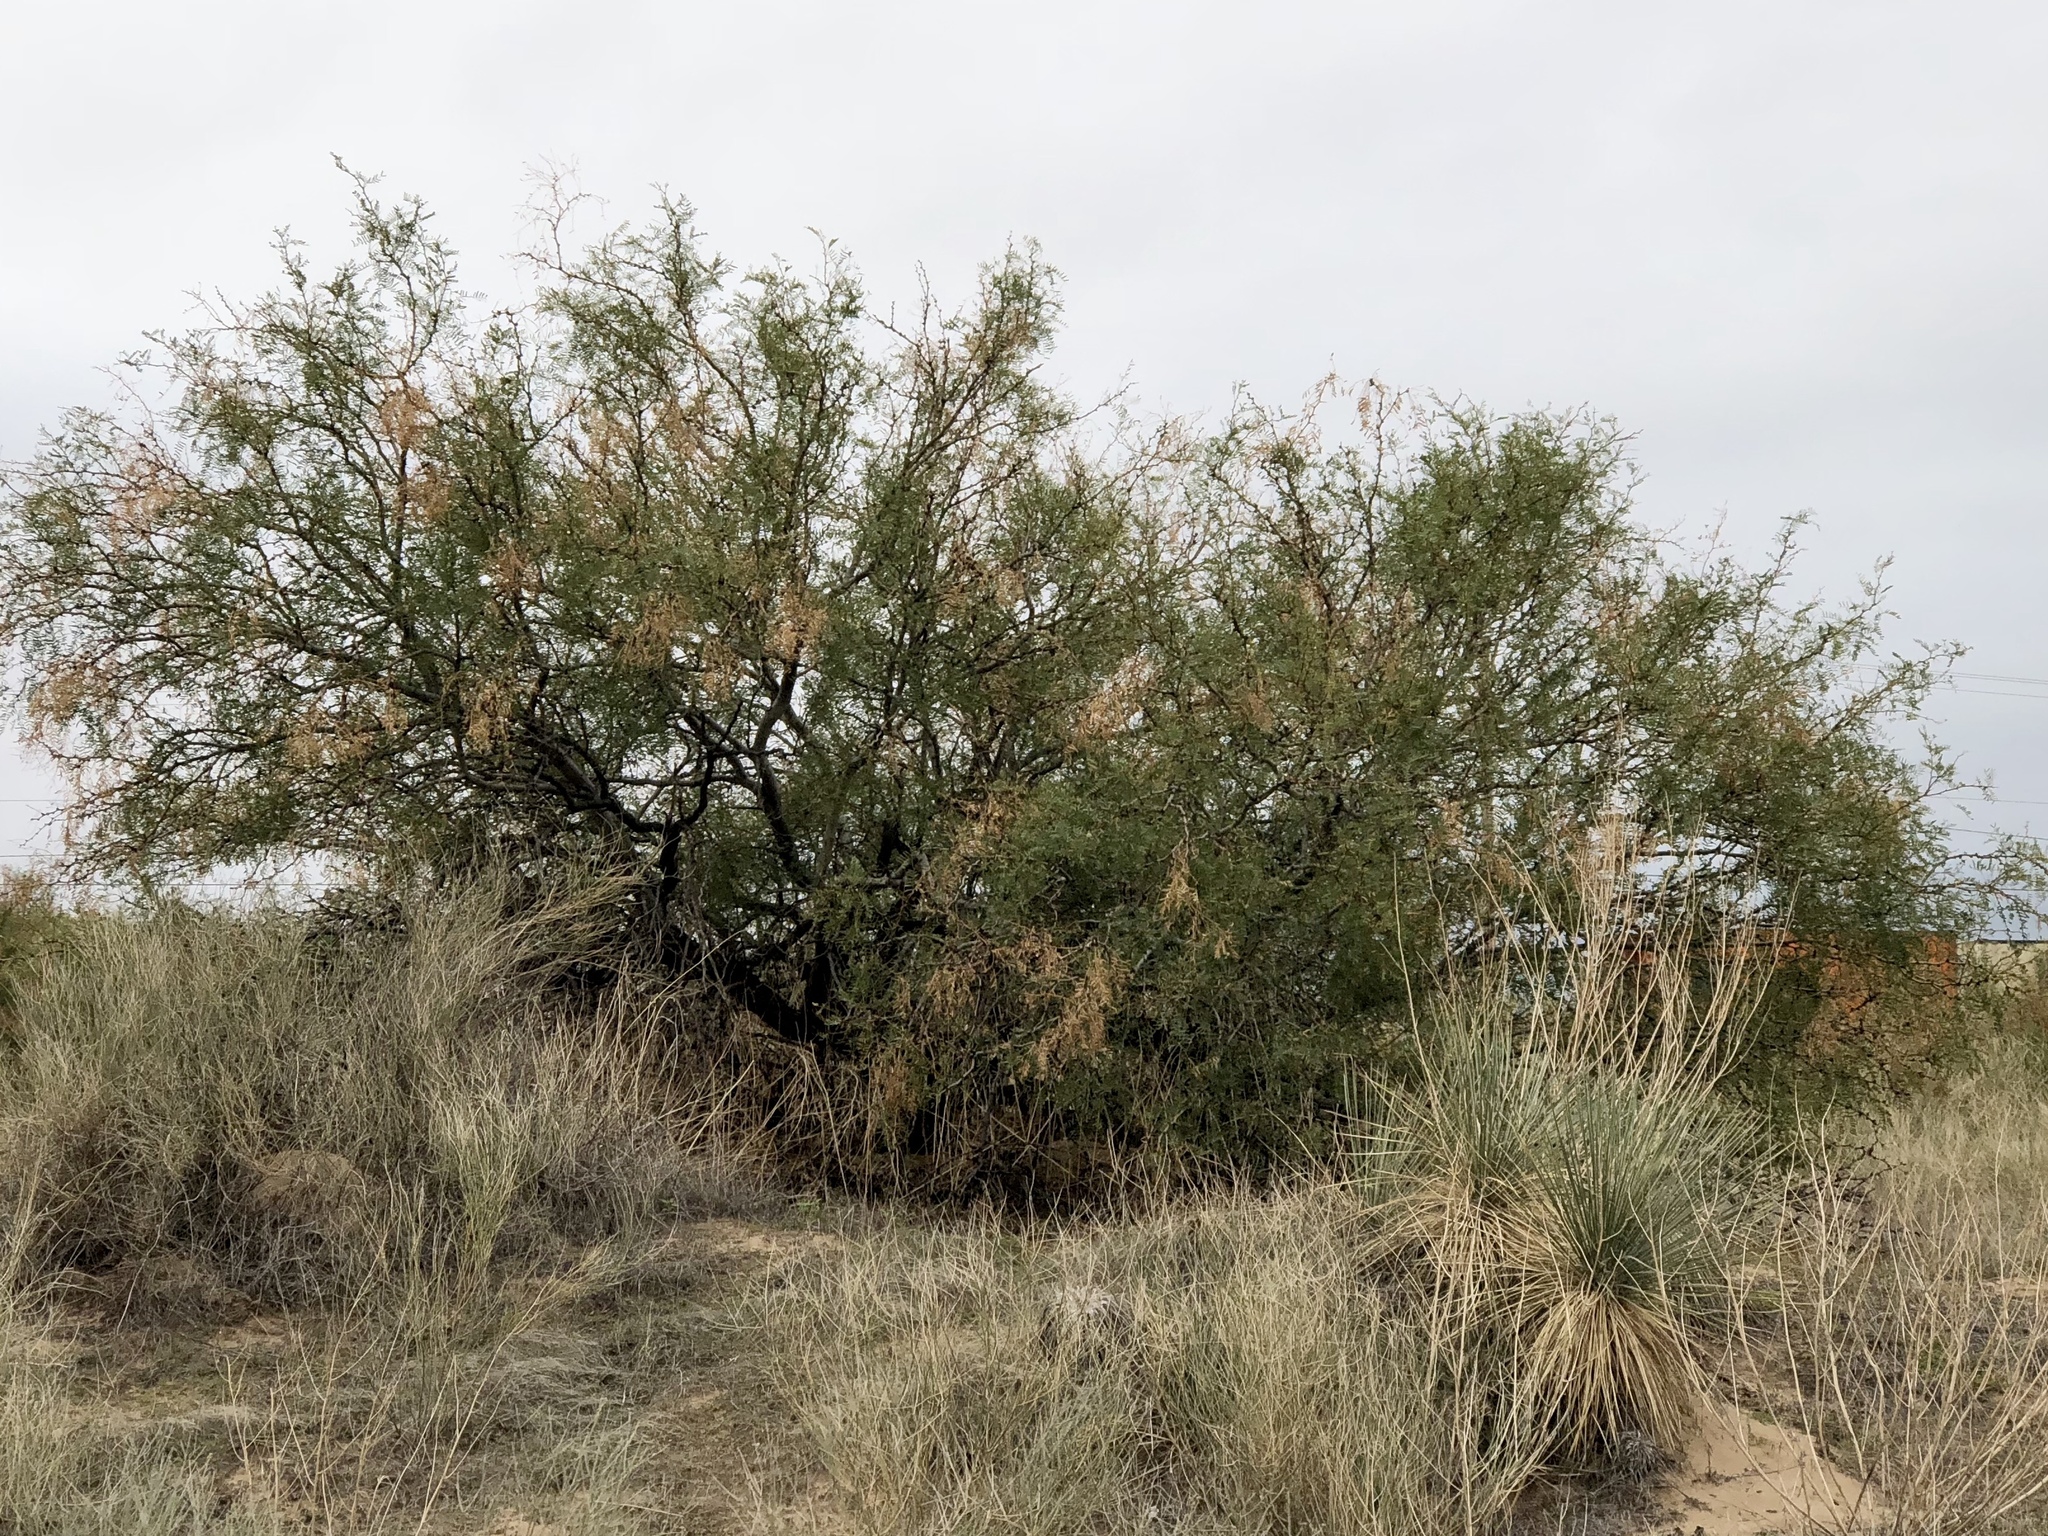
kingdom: Plantae
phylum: Tracheophyta
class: Magnoliopsida
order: Fabales
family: Fabaceae
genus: Prosopis
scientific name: Prosopis glandulosa
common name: Honey mesquite
